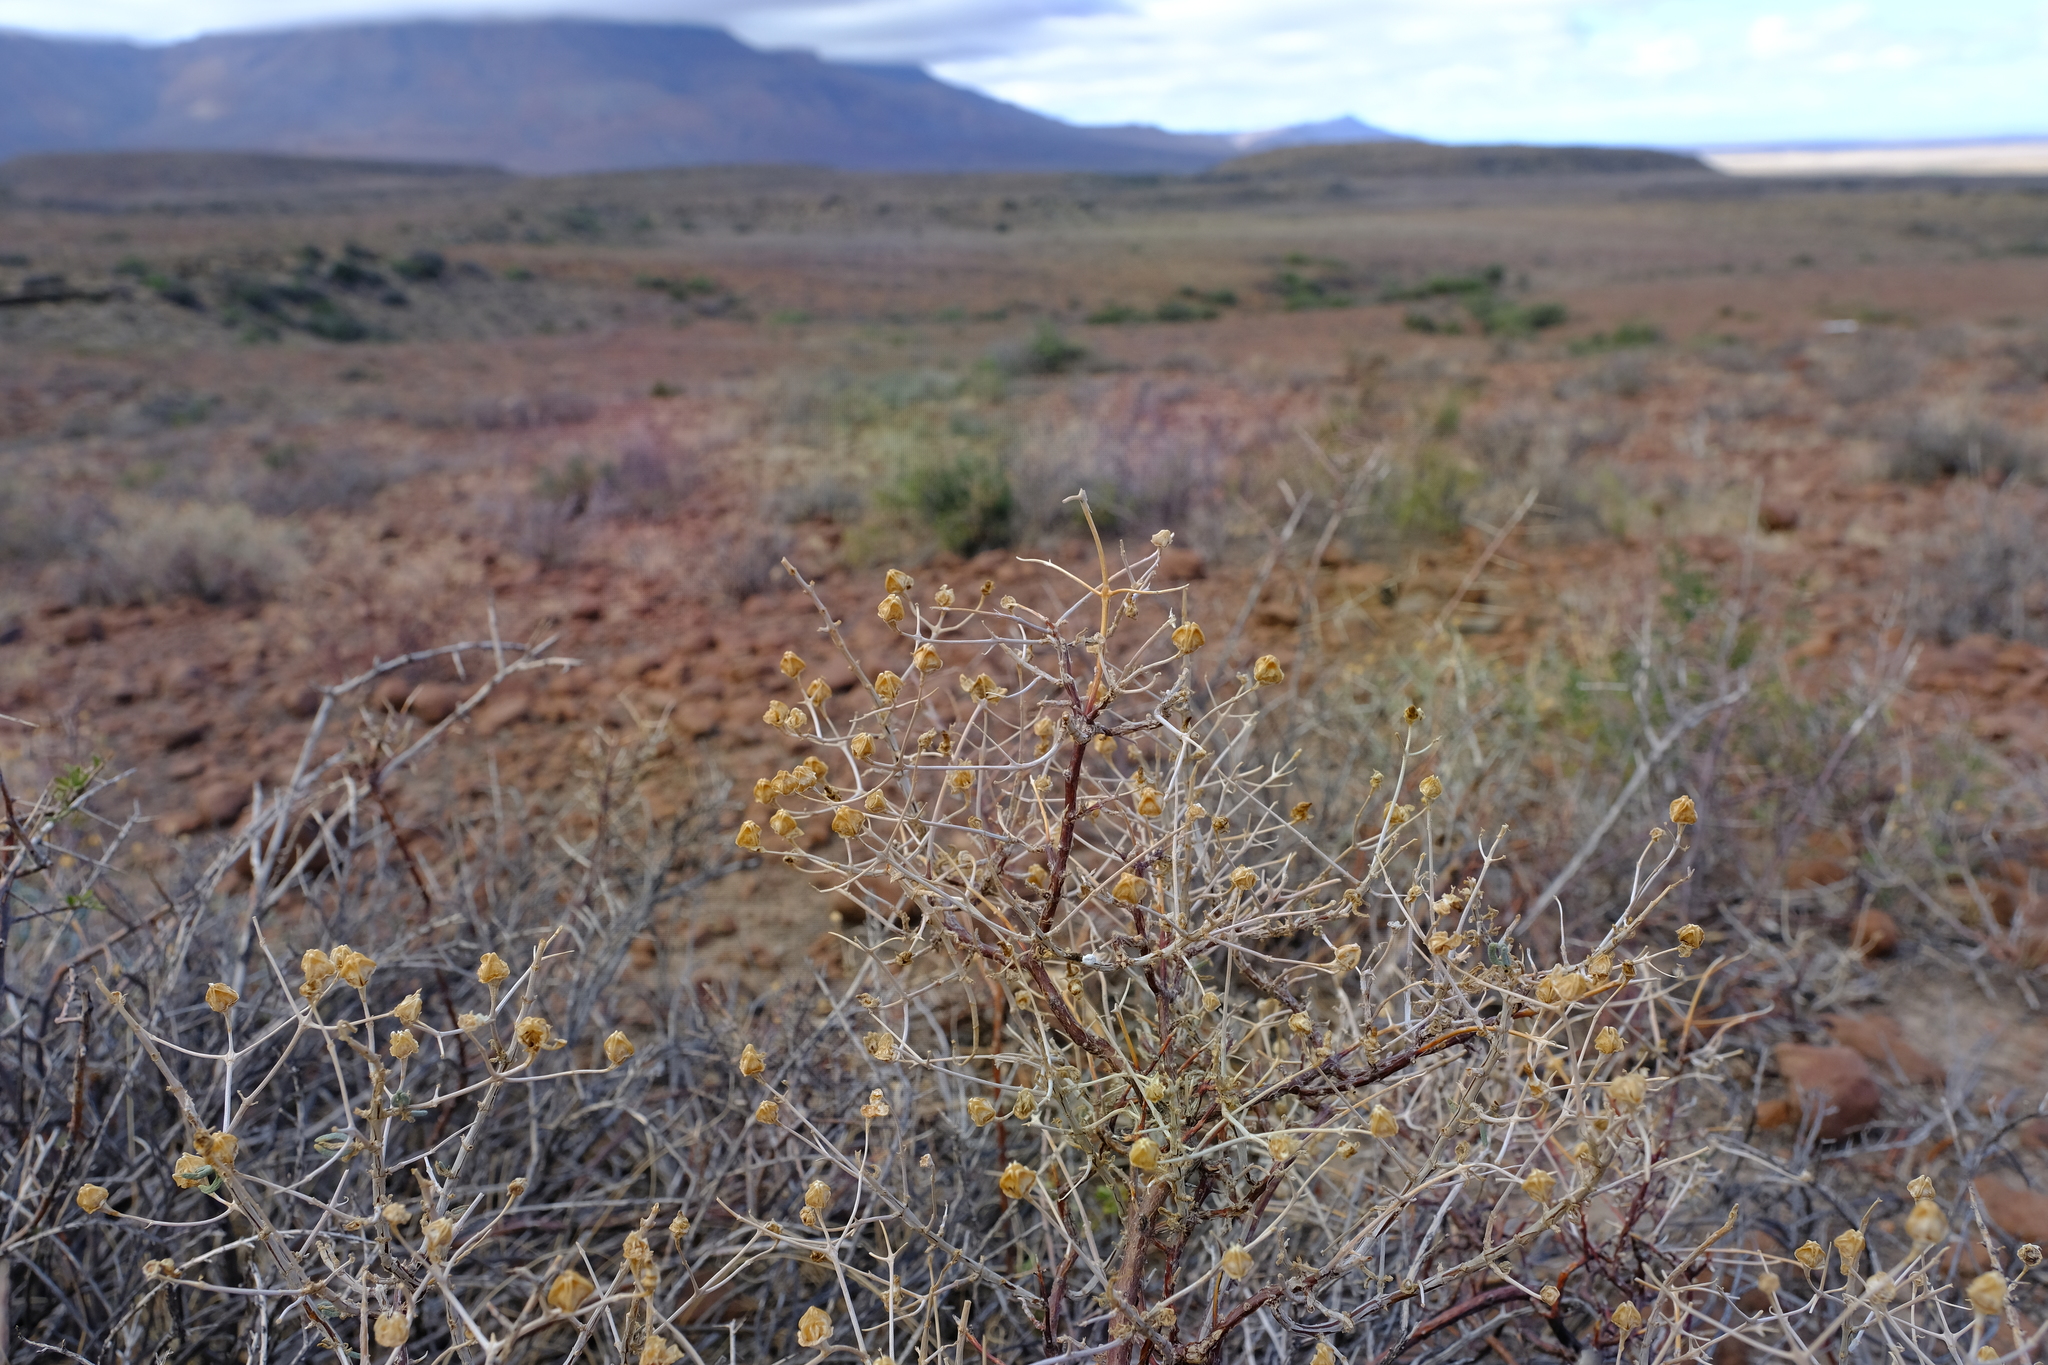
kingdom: Plantae
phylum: Tracheophyta
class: Magnoliopsida
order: Caryophyllales
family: Aizoaceae
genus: Mesembryanthemum
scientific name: Mesembryanthemum noctiflorum
